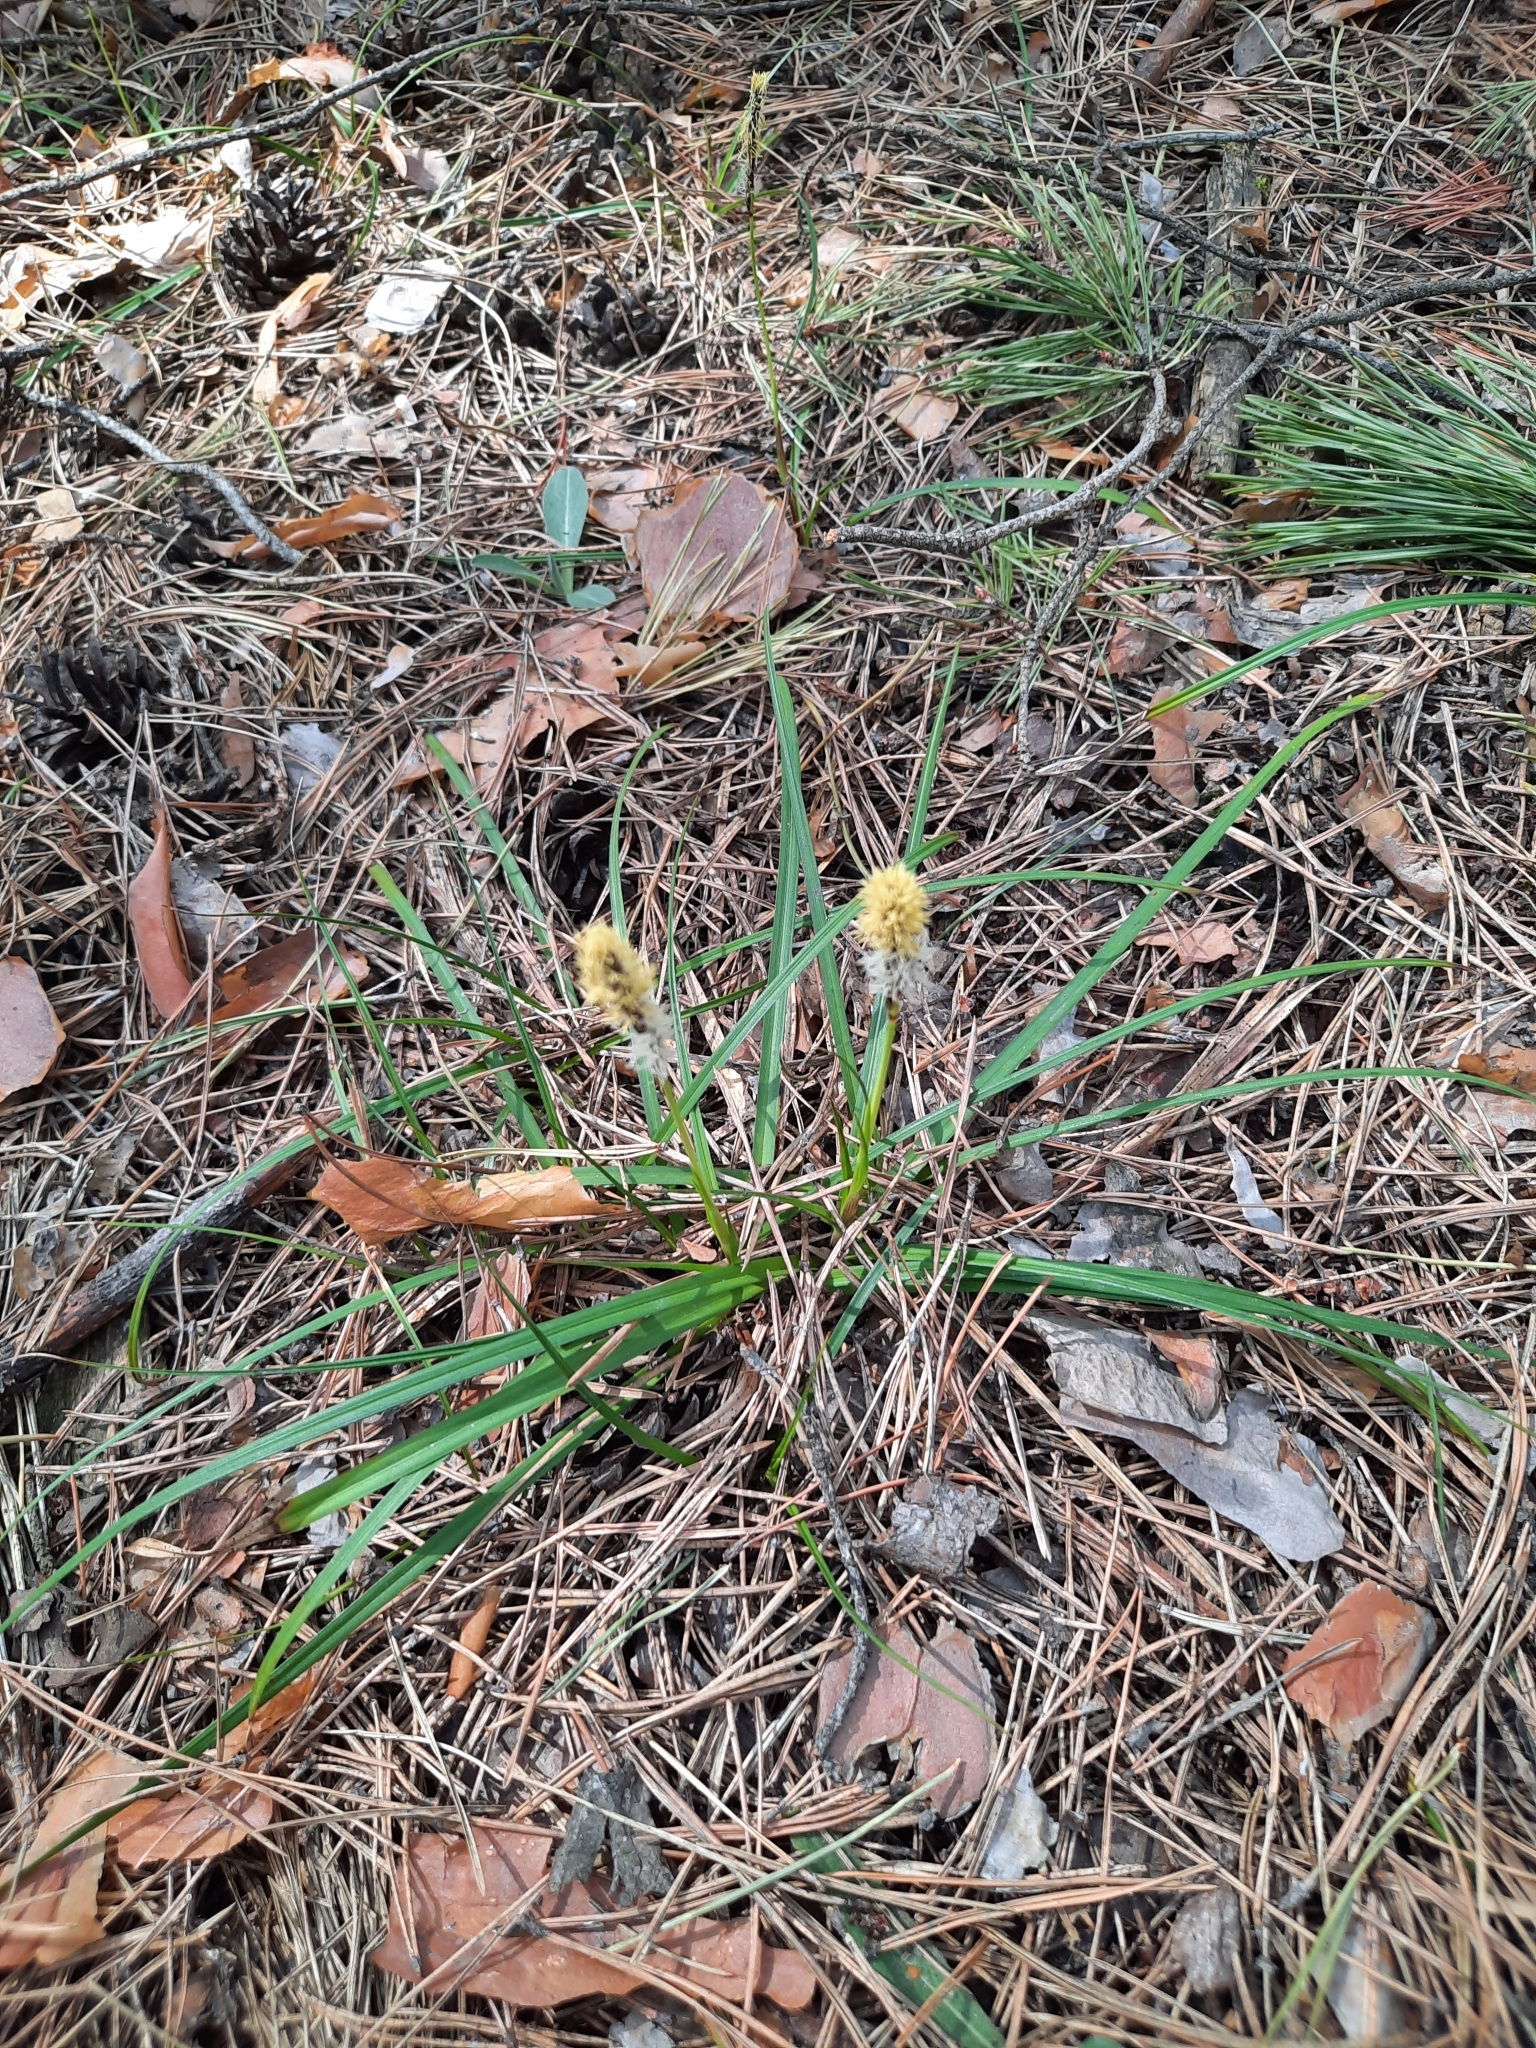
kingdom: Plantae
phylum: Tracheophyta
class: Liliopsida
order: Poales
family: Cyperaceae
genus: Carex
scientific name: Carex ericetorum
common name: Rare spring-sedge
